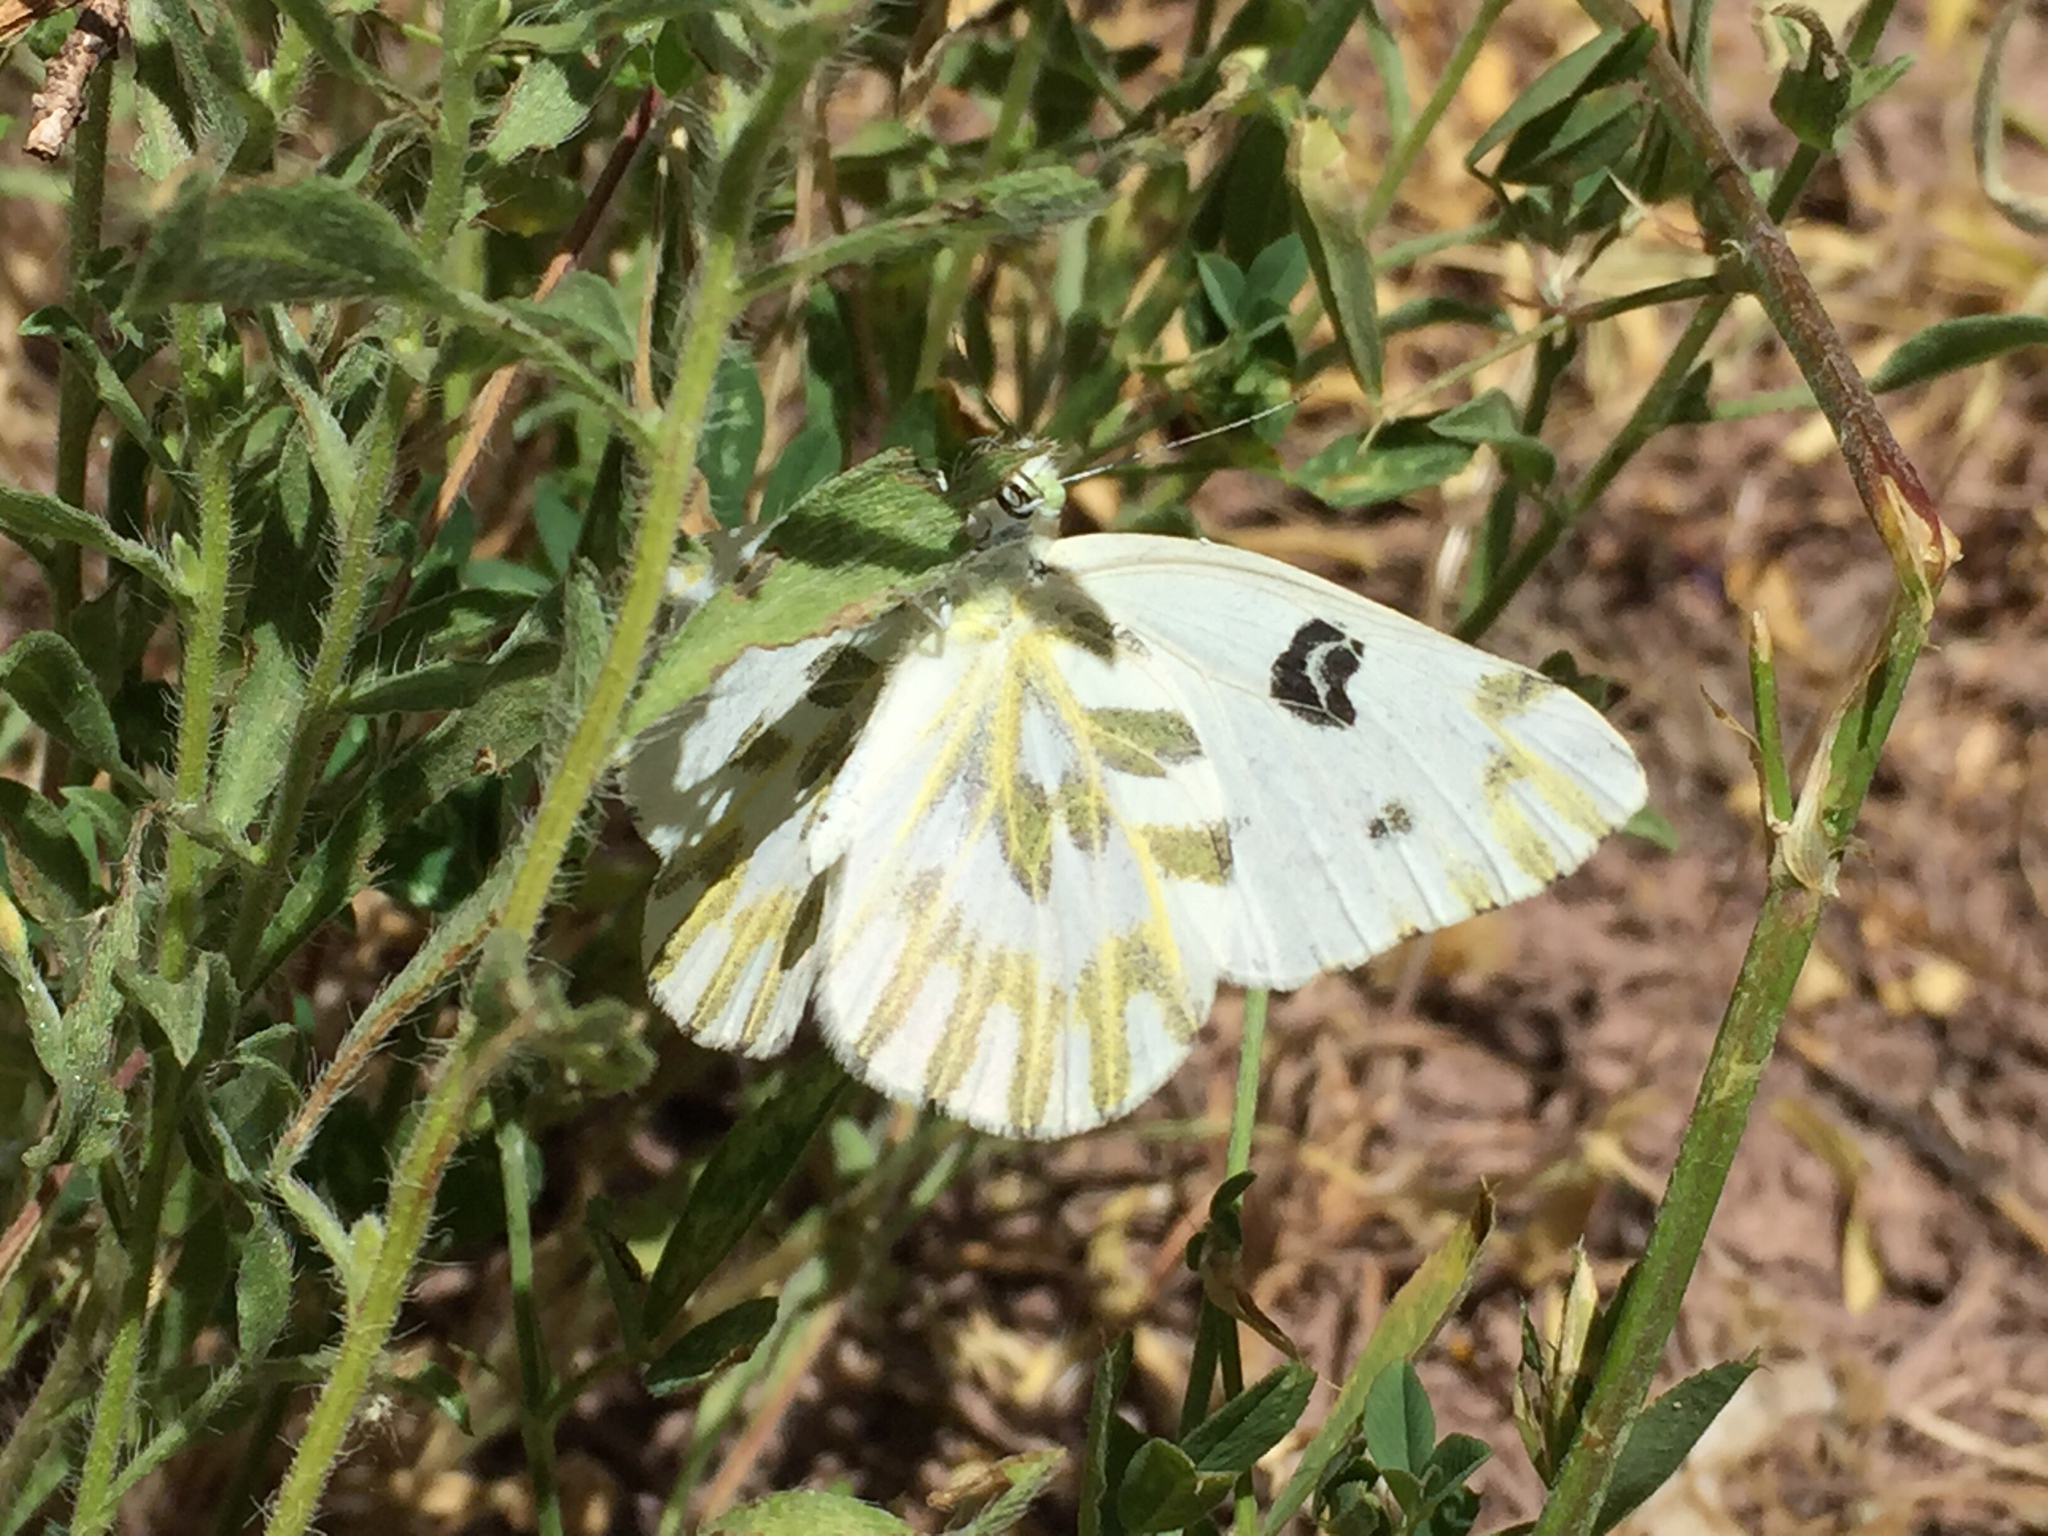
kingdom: Animalia
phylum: Arthropoda
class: Insecta
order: Lepidoptera
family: Pieridae
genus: Pontia
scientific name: Pontia beckerii
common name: Becker's white
